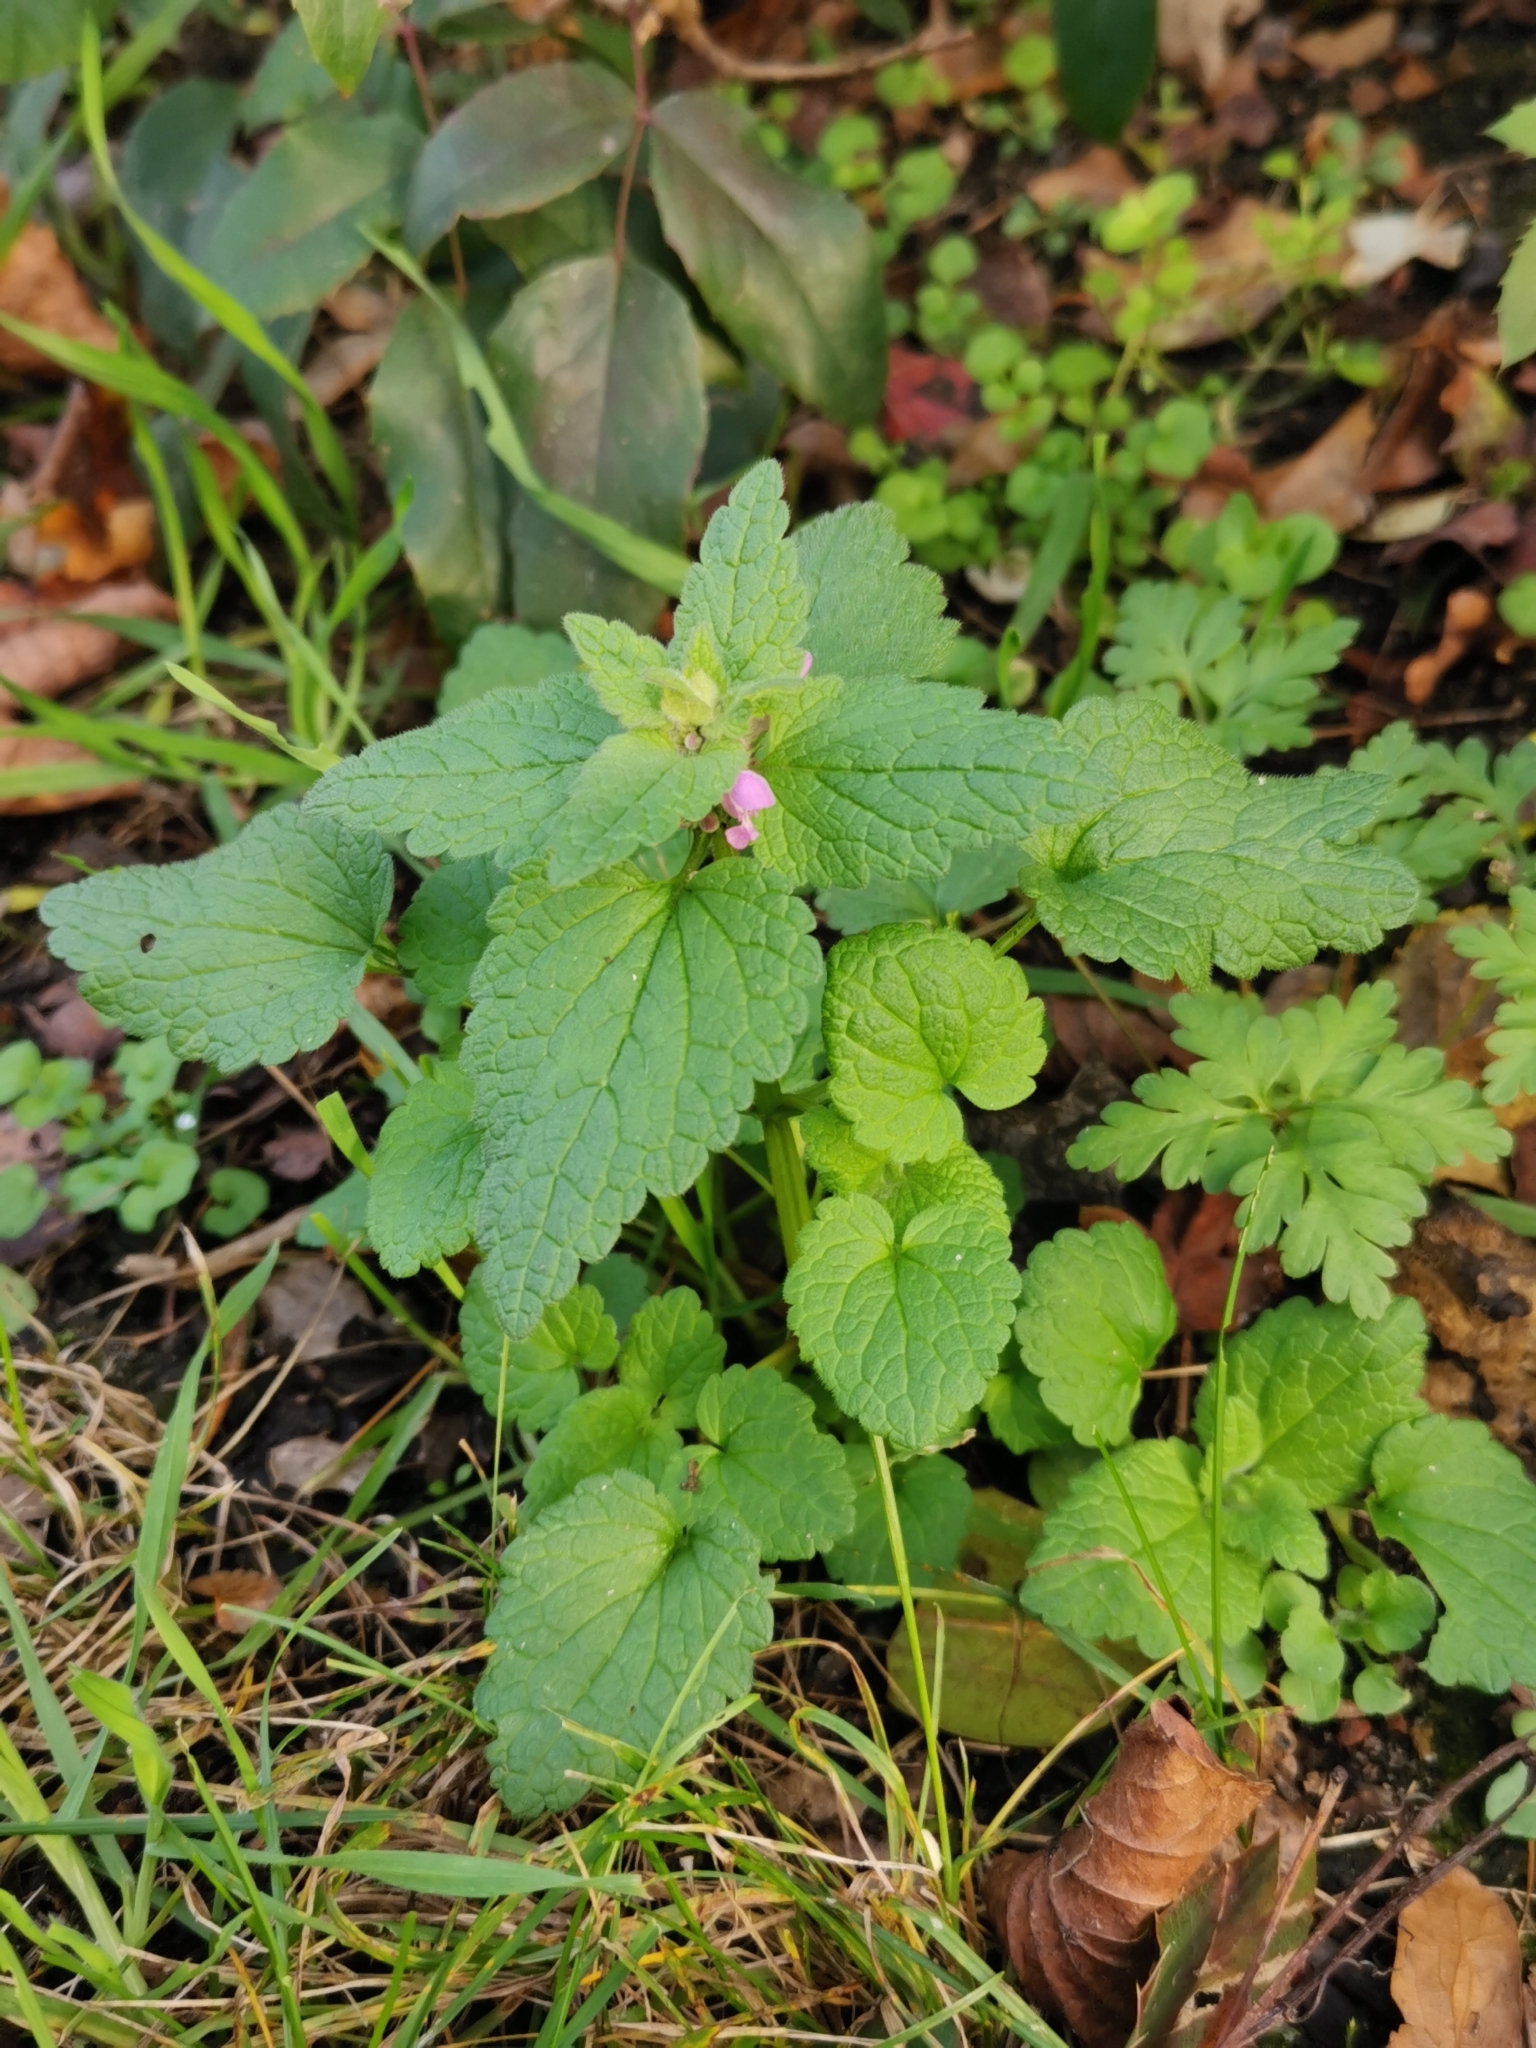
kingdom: Plantae
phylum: Tracheophyta
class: Magnoliopsida
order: Lamiales
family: Lamiaceae
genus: Lamium
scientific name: Lamium purpureum
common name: Red dead-nettle
